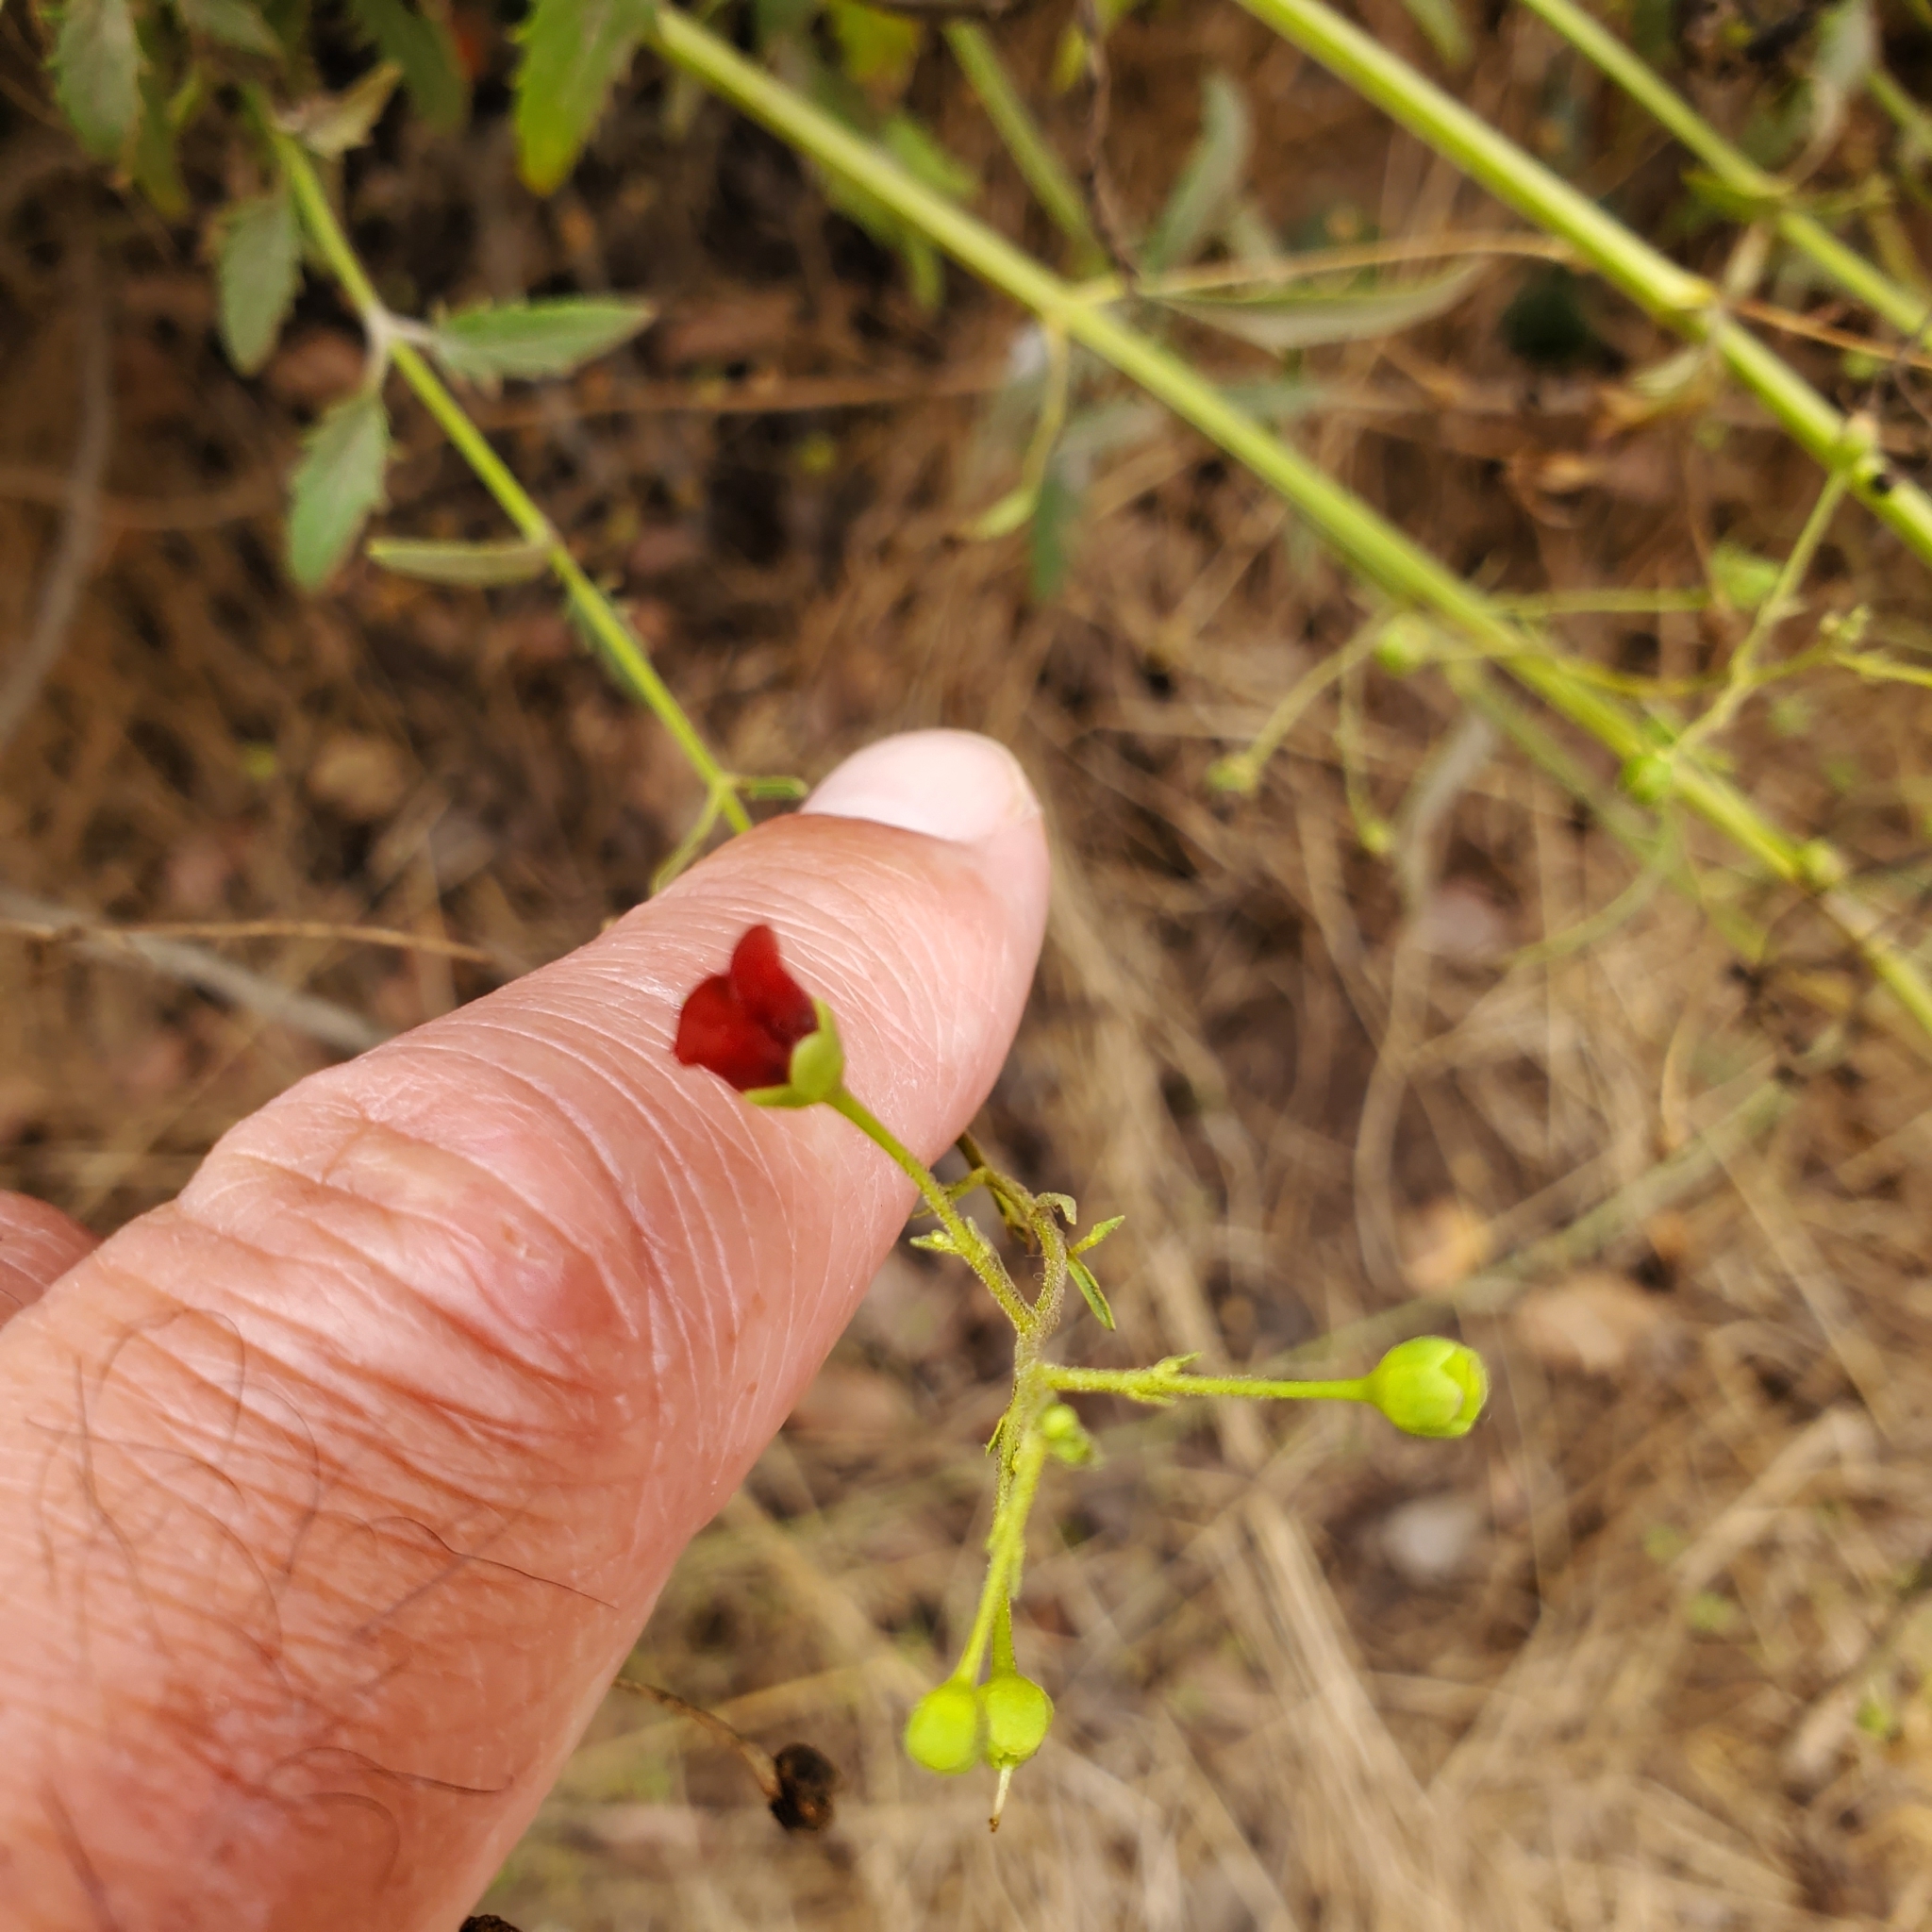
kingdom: Plantae
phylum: Tracheophyta
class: Magnoliopsida
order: Lamiales
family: Scrophulariaceae
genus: Scrophularia
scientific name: Scrophularia californica
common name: California figwort
